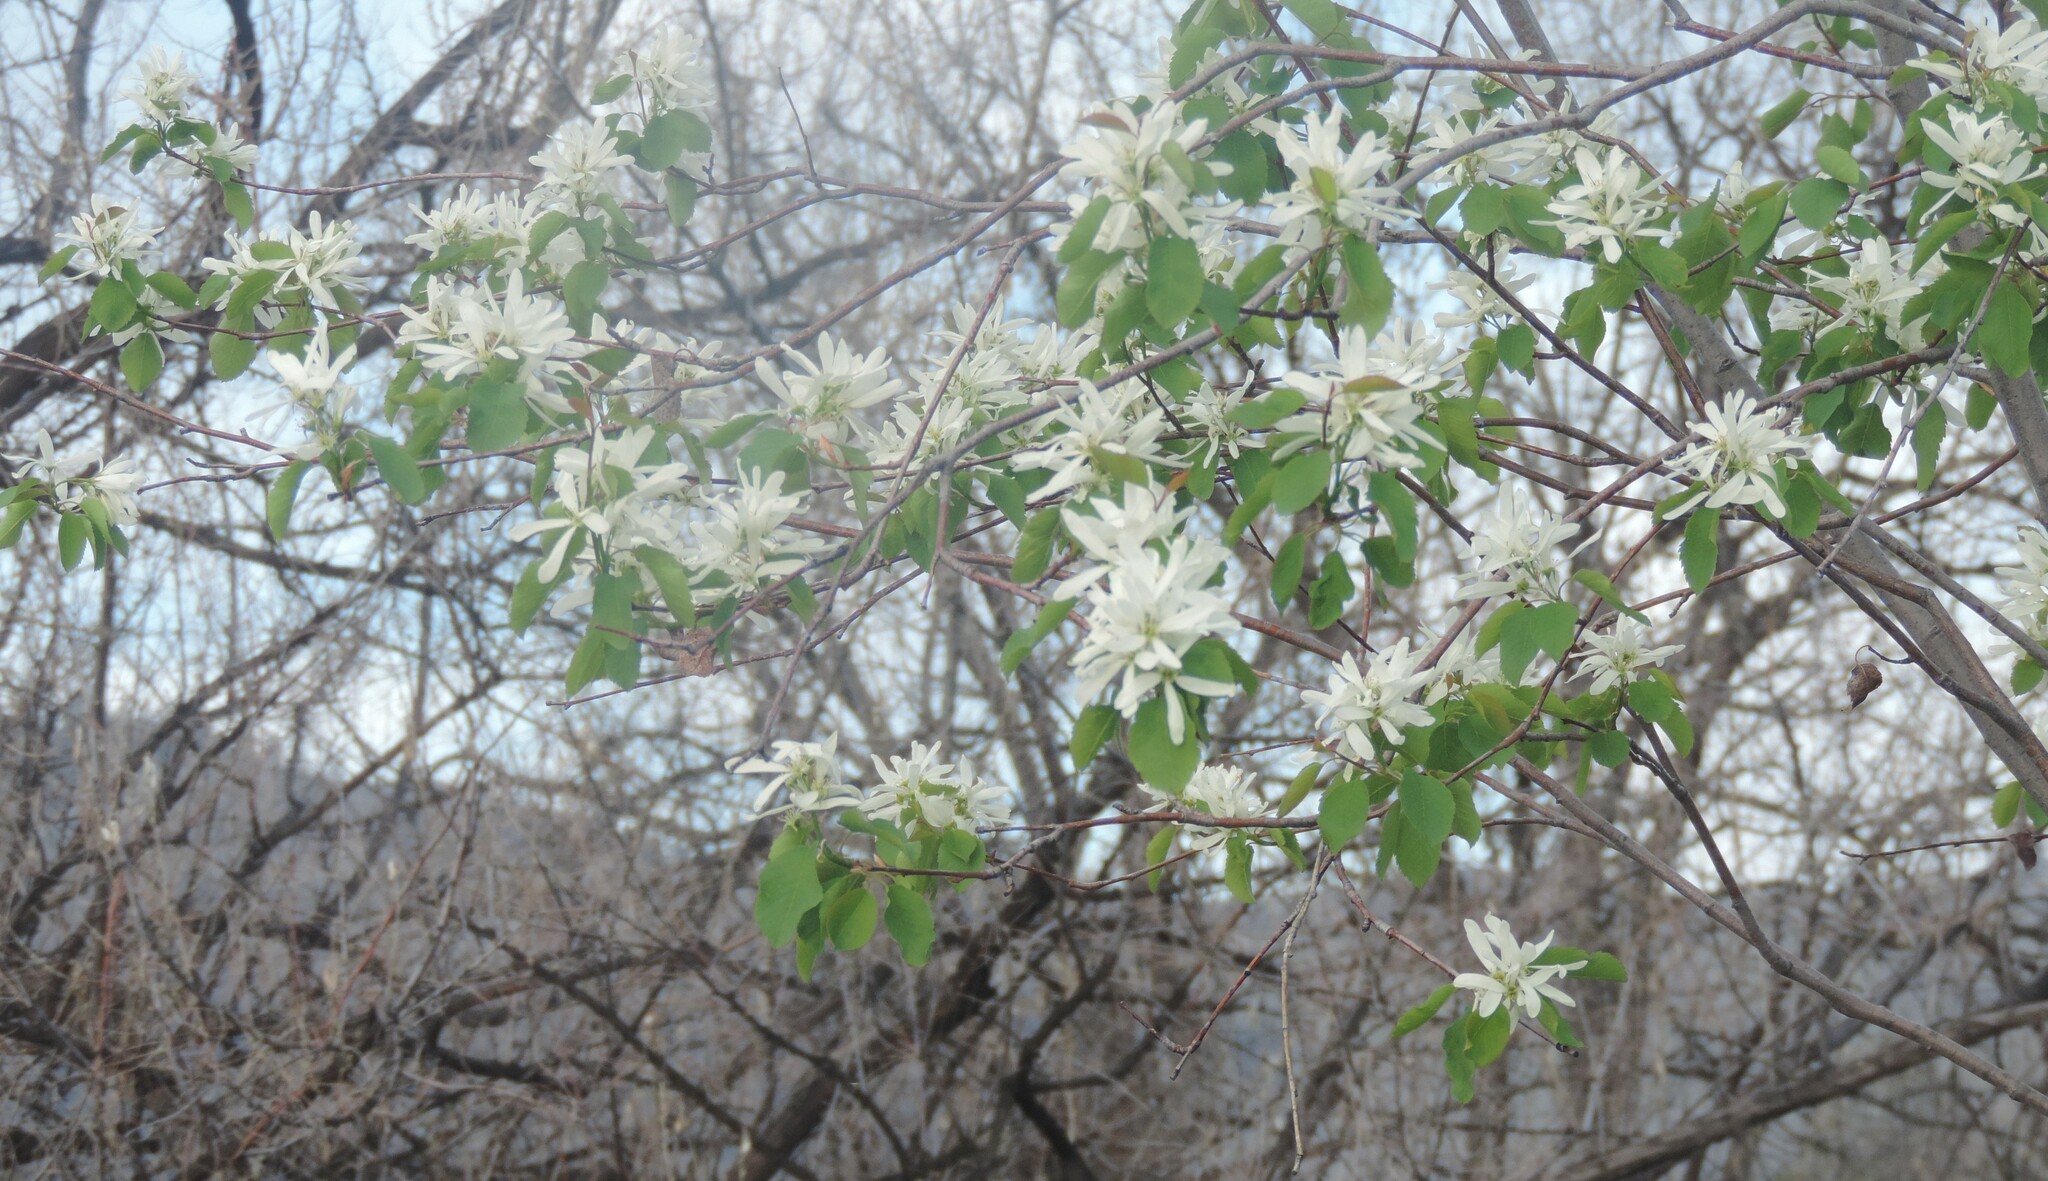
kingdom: Plantae
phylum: Tracheophyta
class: Magnoliopsida
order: Rosales
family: Rosaceae
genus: Amelanchier
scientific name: Amelanchier alnifolia
